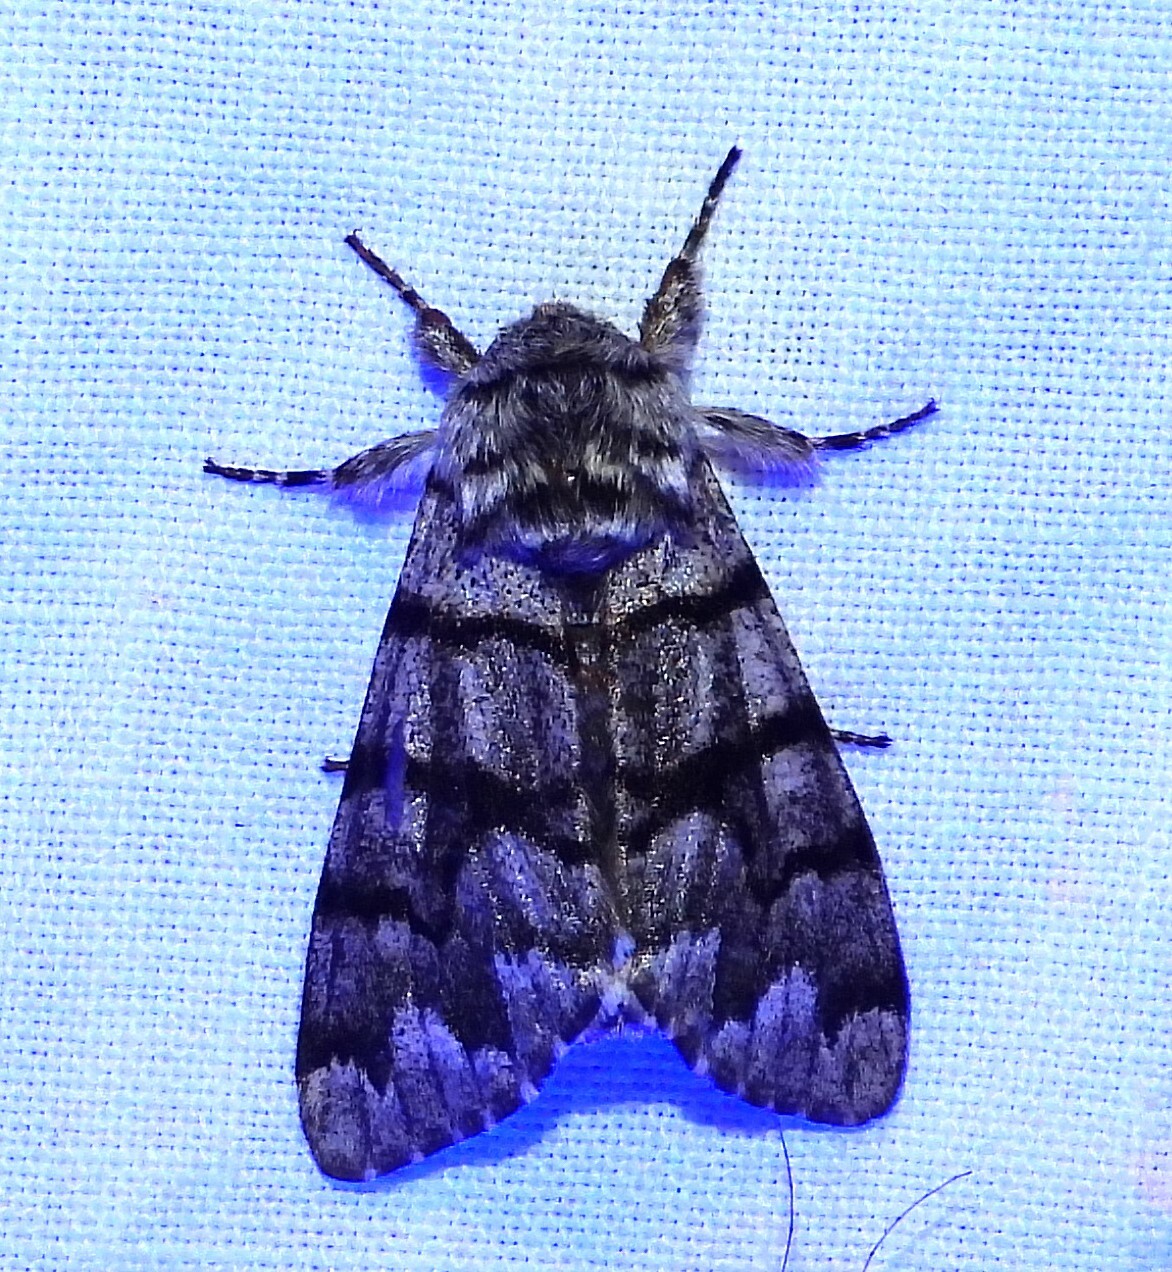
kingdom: Animalia
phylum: Arthropoda
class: Insecta
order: Lepidoptera
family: Noctuidae
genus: Panthea
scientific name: Panthea furcilla
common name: Eastern panthea moth
